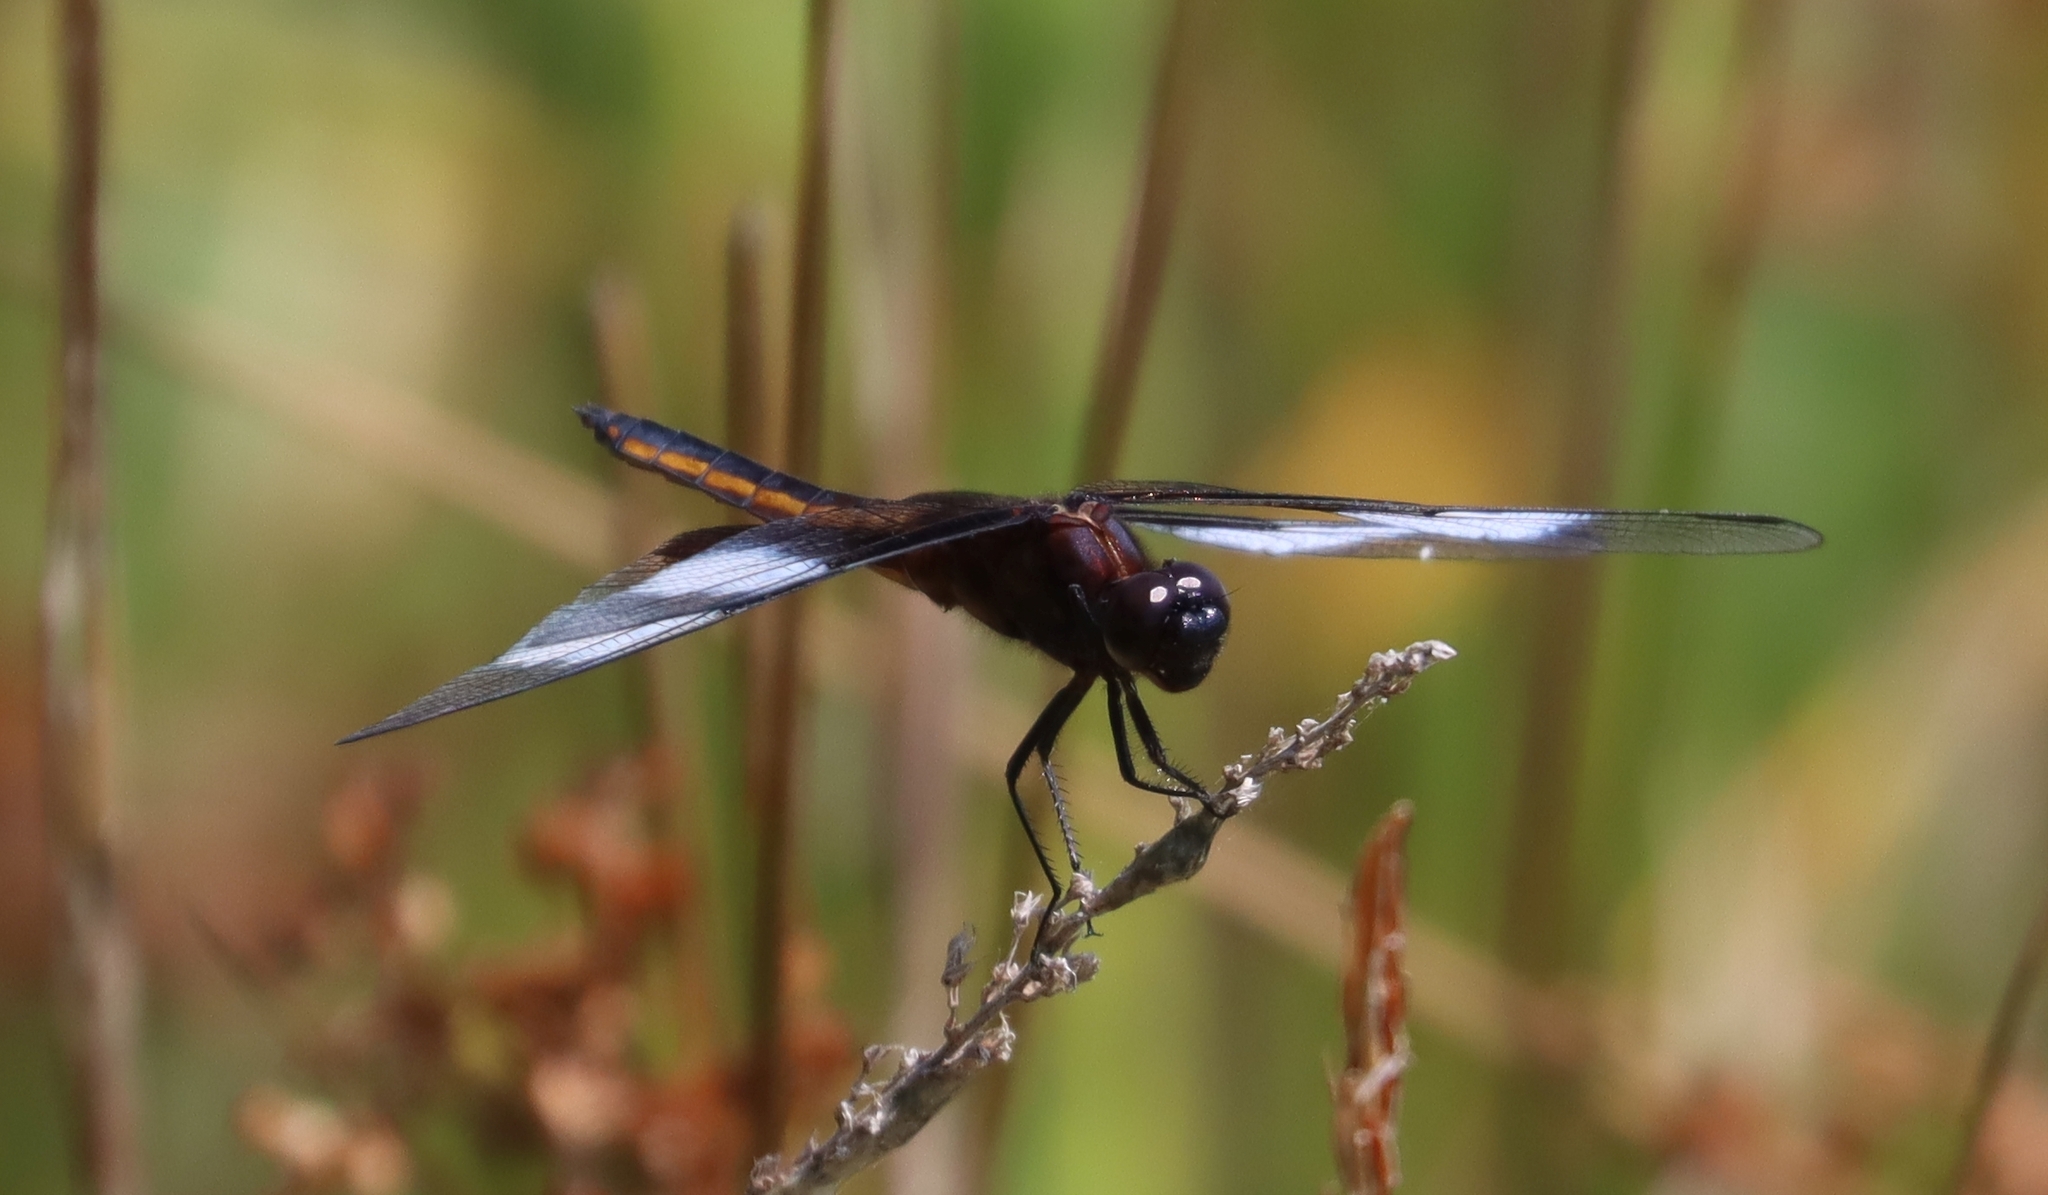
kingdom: Animalia
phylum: Arthropoda
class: Insecta
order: Odonata
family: Libellulidae
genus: Libellula
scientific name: Libellula luctuosa
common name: Widow skimmer
